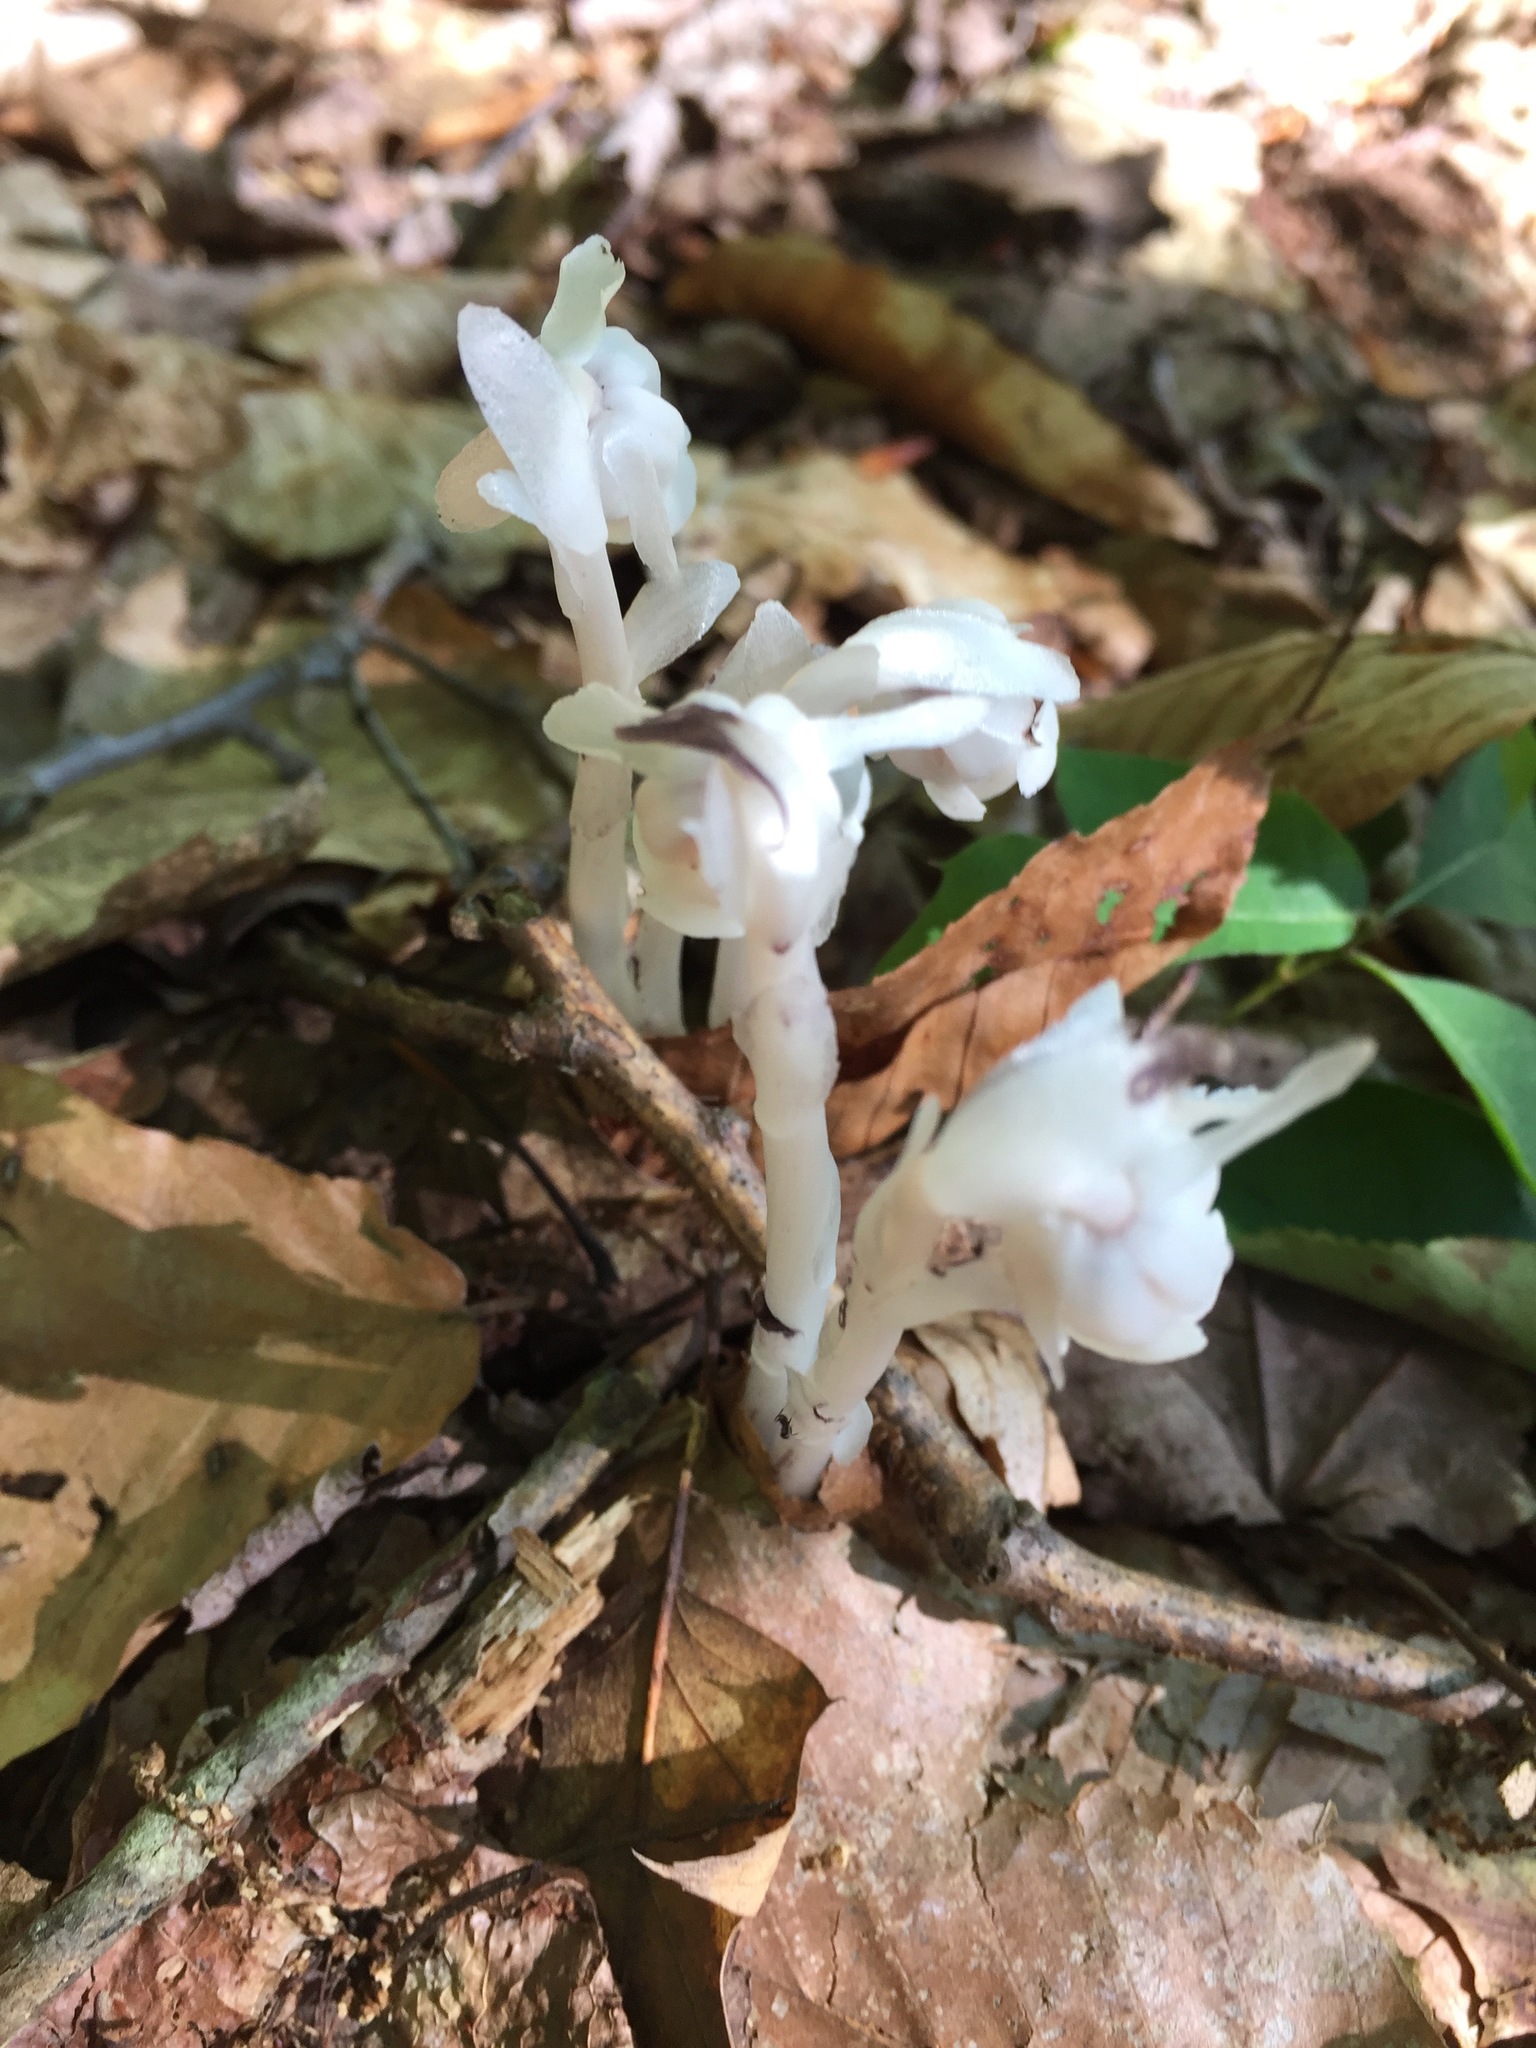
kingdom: Plantae
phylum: Tracheophyta
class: Magnoliopsida
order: Ericales
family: Ericaceae
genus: Monotropa
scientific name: Monotropa uniflora
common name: Convulsion root
